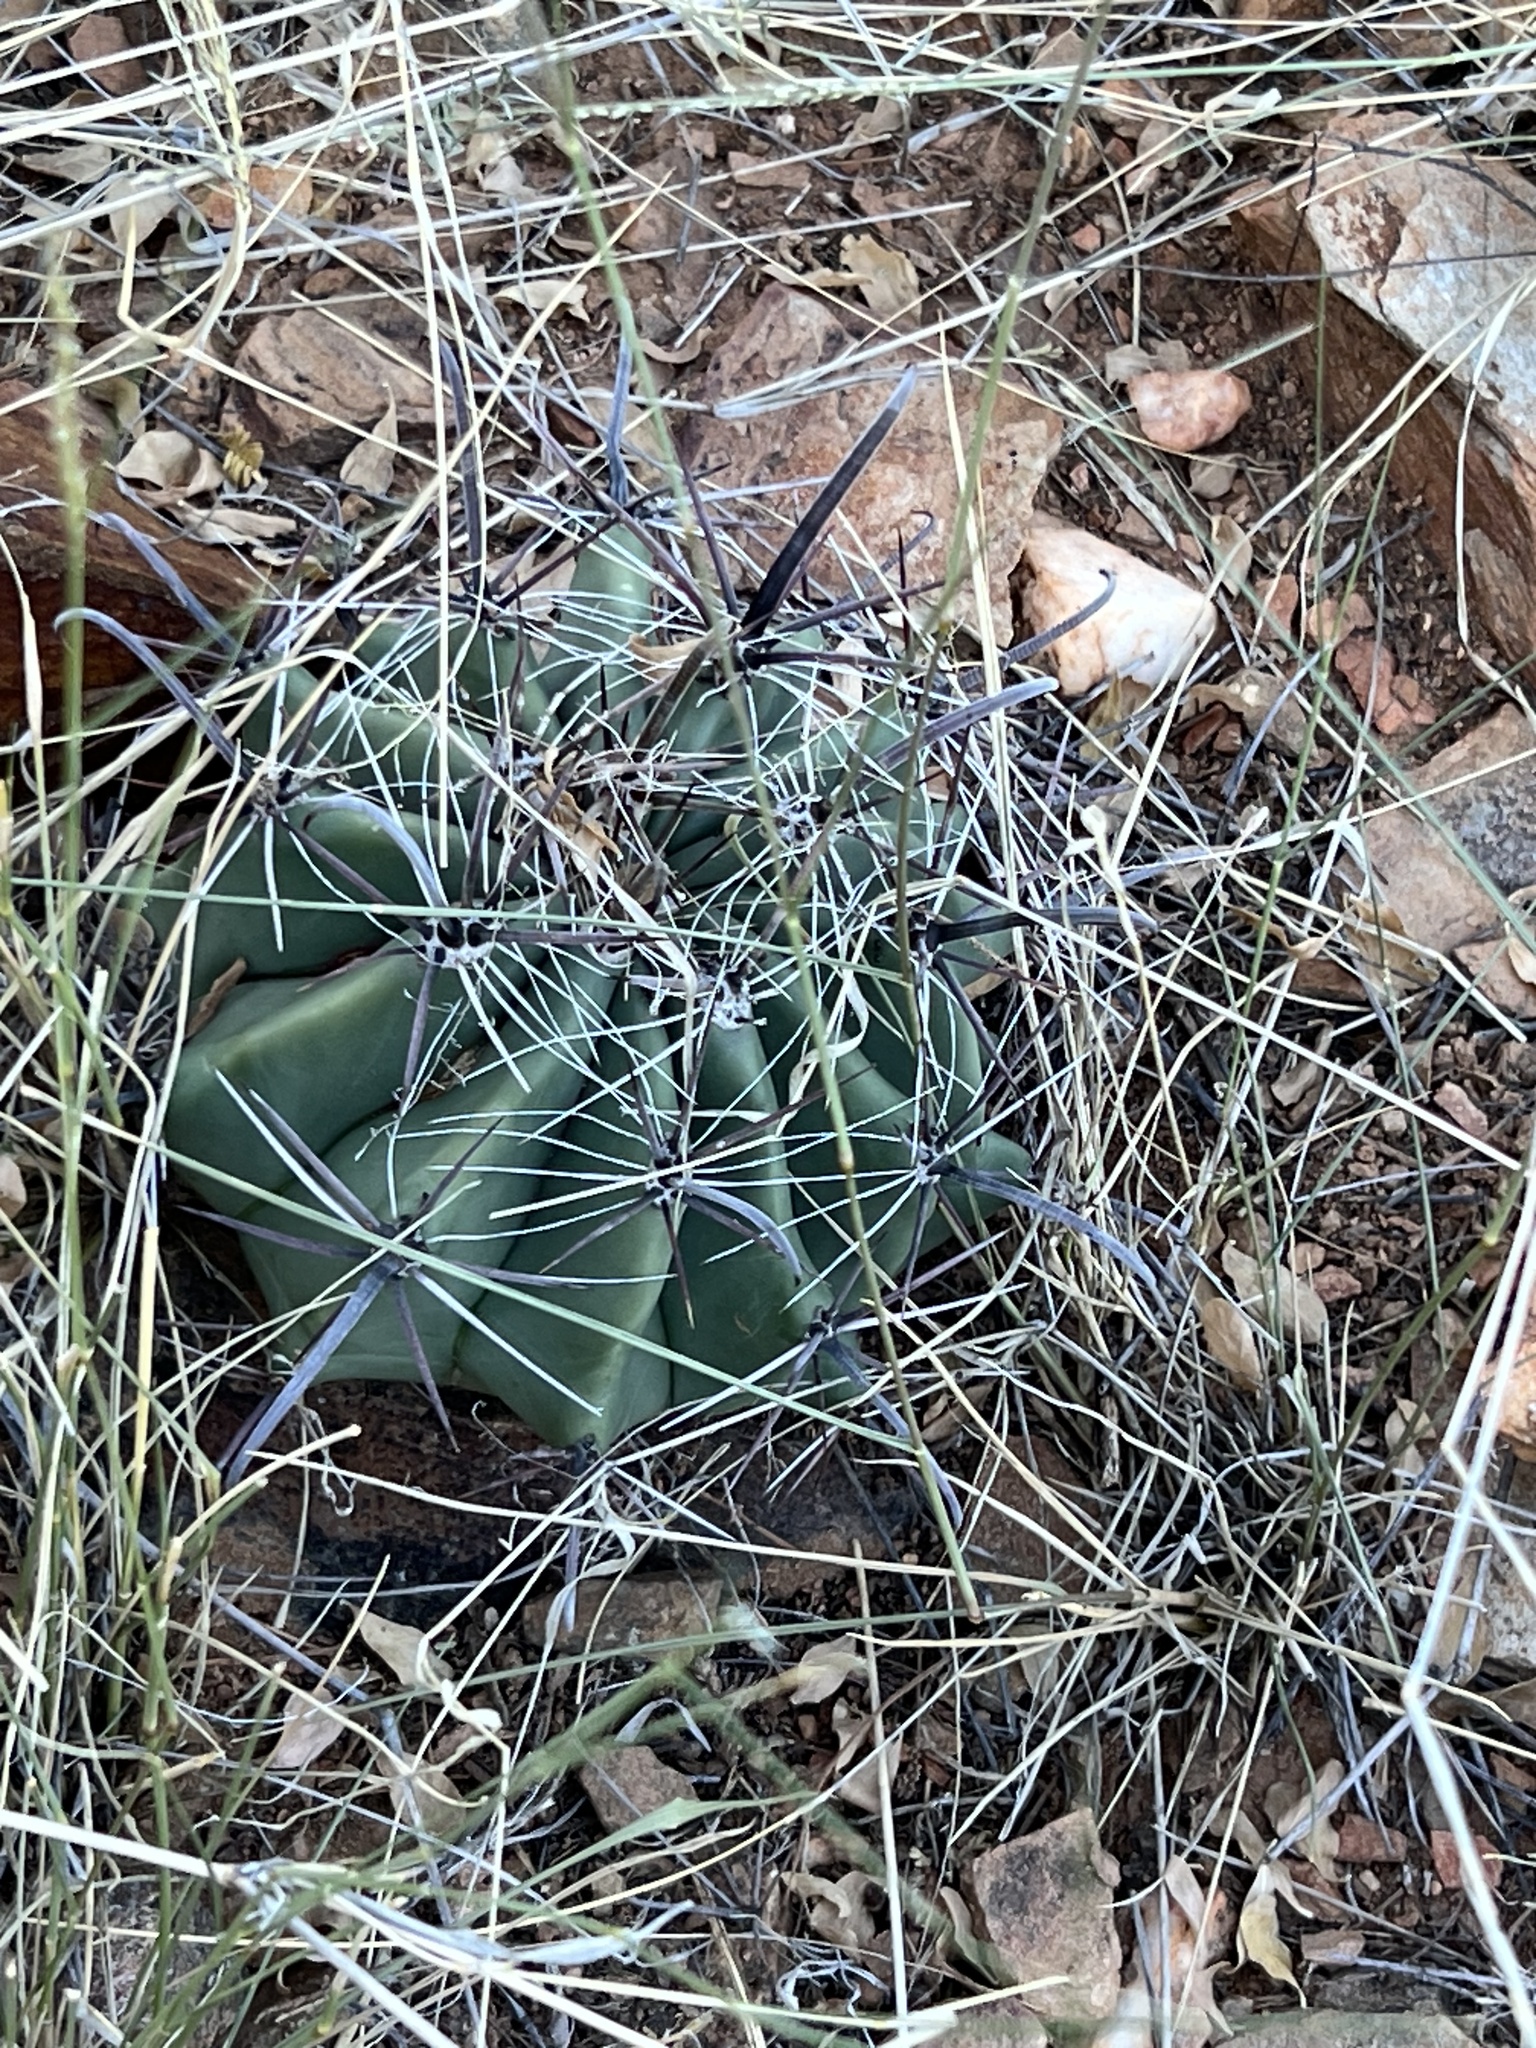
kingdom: Plantae
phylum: Tracheophyta
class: Magnoliopsida
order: Caryophyllales
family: Cactaceae
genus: Ferocactus
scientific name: Ferocactus wislizeni
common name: Candy barrel cactus
